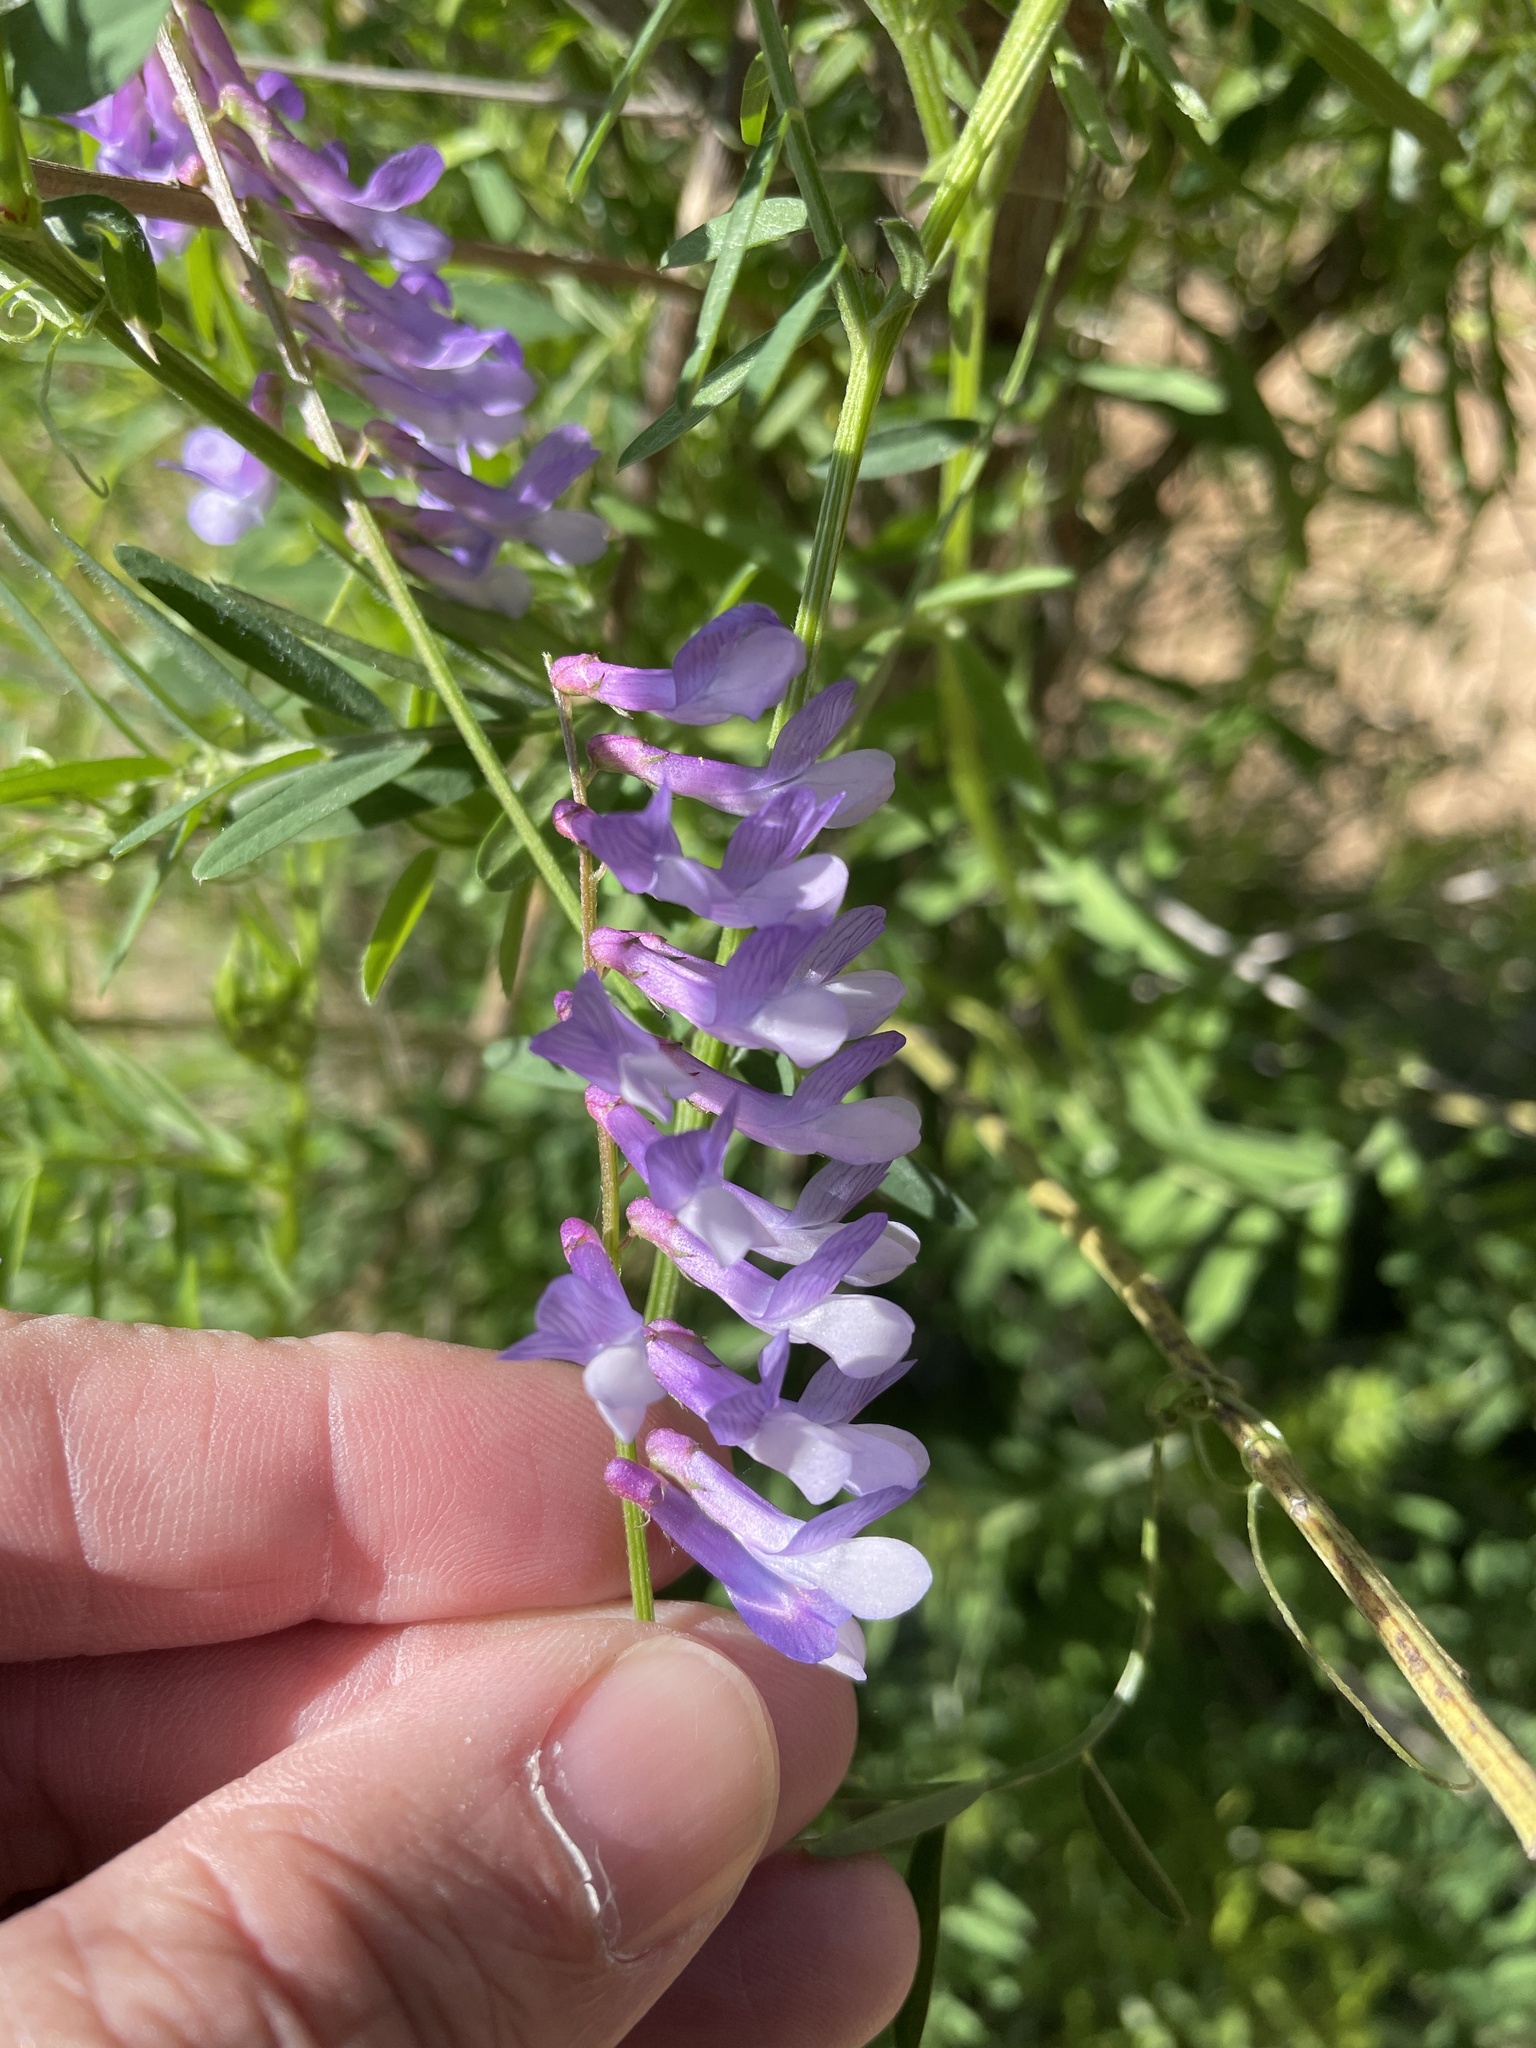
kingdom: Plantae
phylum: Tracheophyta
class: Magnoliopsida
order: Fabales
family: Fabaceae
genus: Vicia
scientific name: Vicia villosa
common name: Fodder vetch
